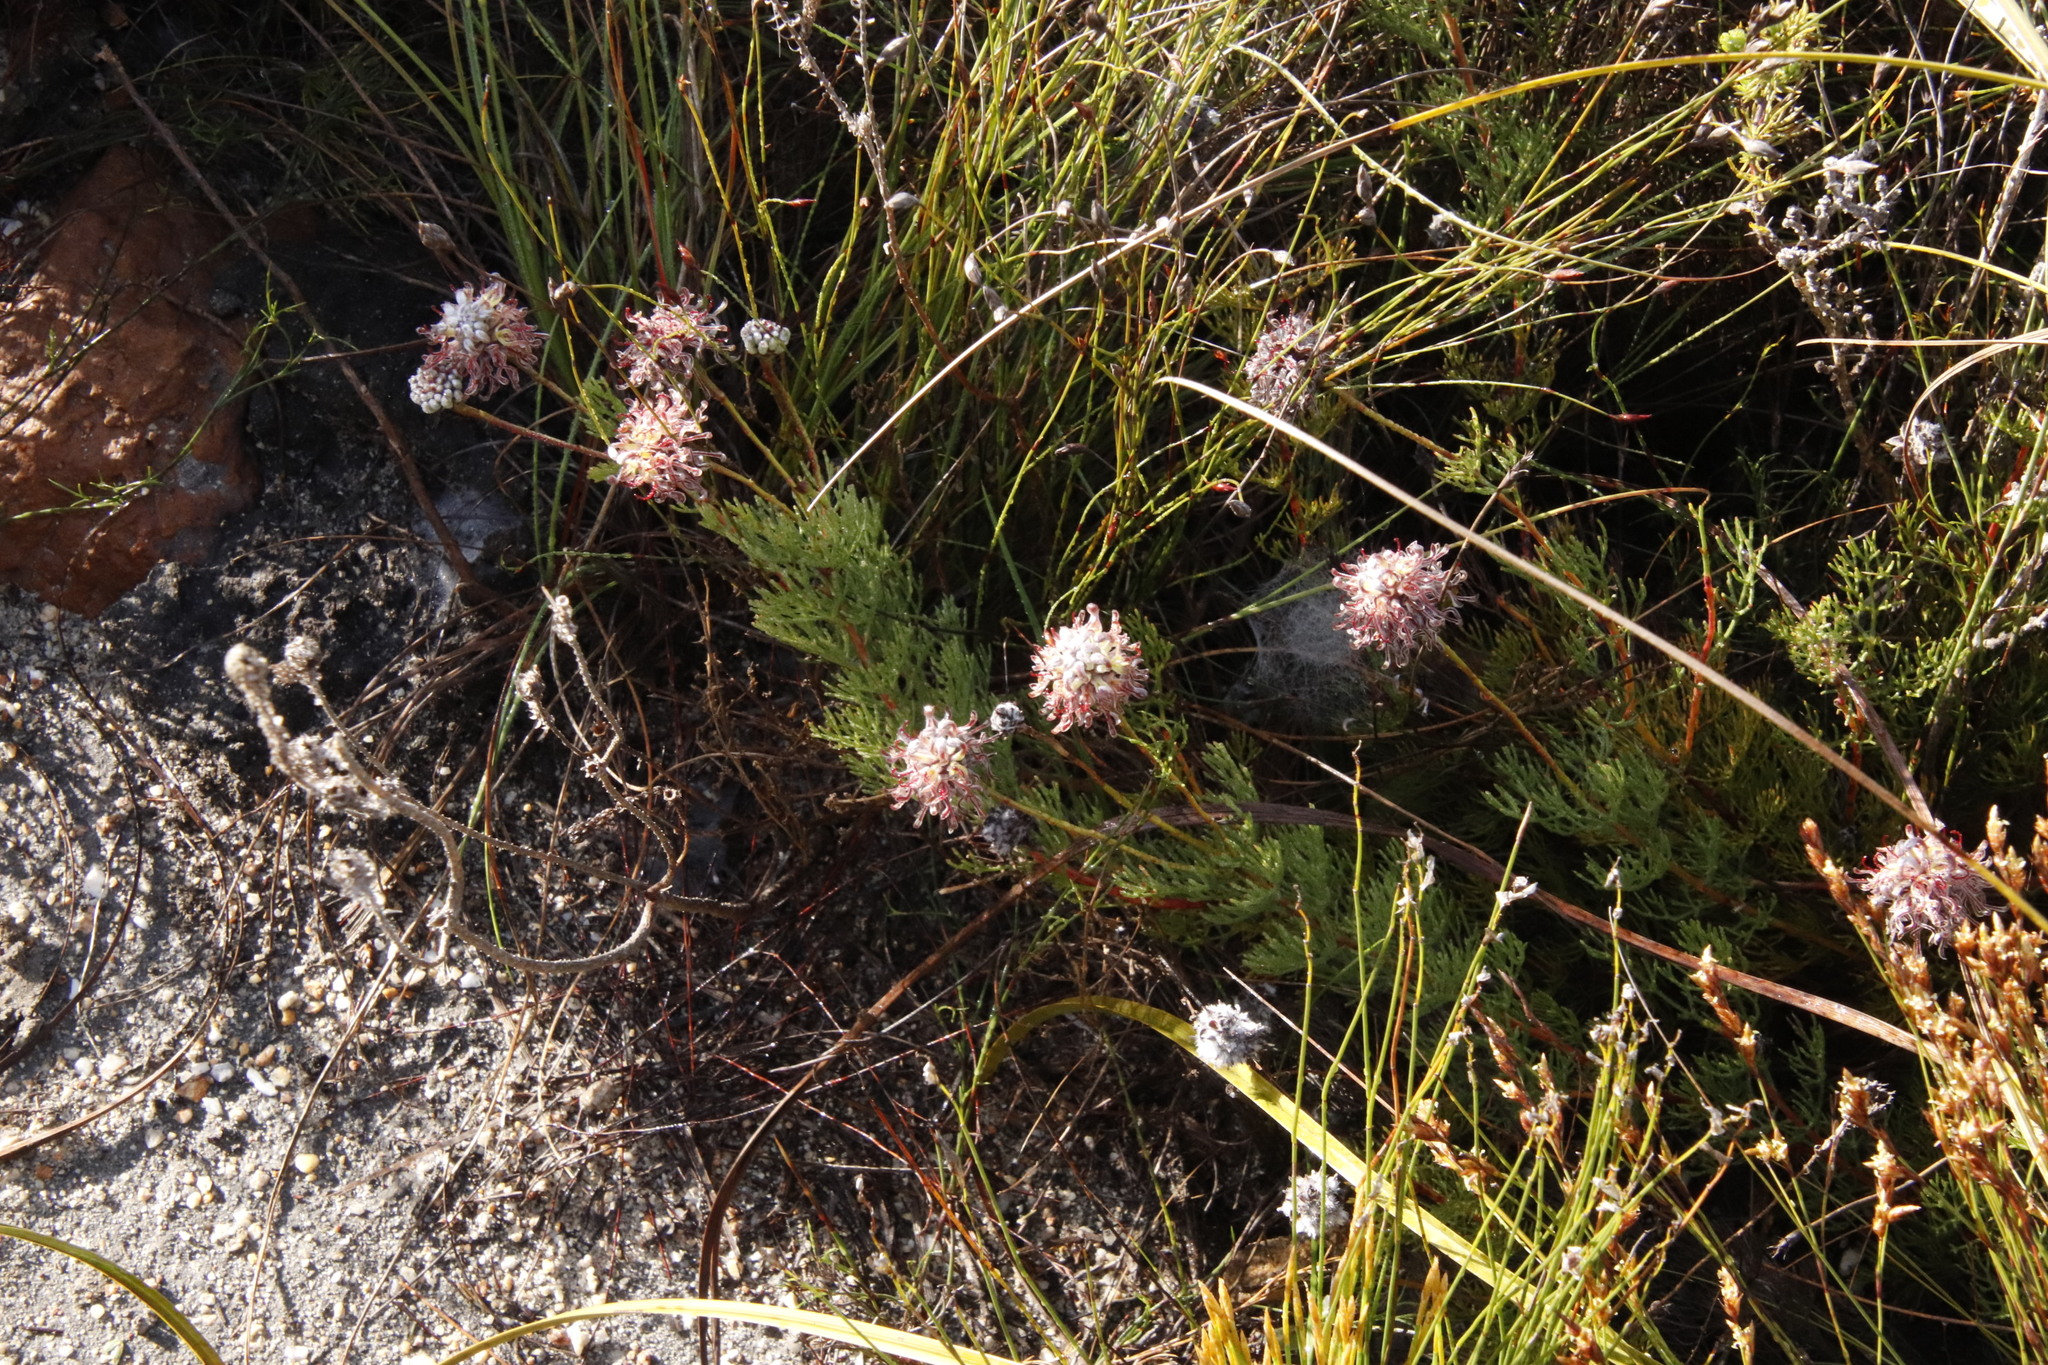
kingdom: Plantae
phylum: Tracheophyta
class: Magnoliopsida
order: Proteales
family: Proteaceae
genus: Serruria
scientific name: Serruria gremialis
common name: Riviersonderend spiderhead
